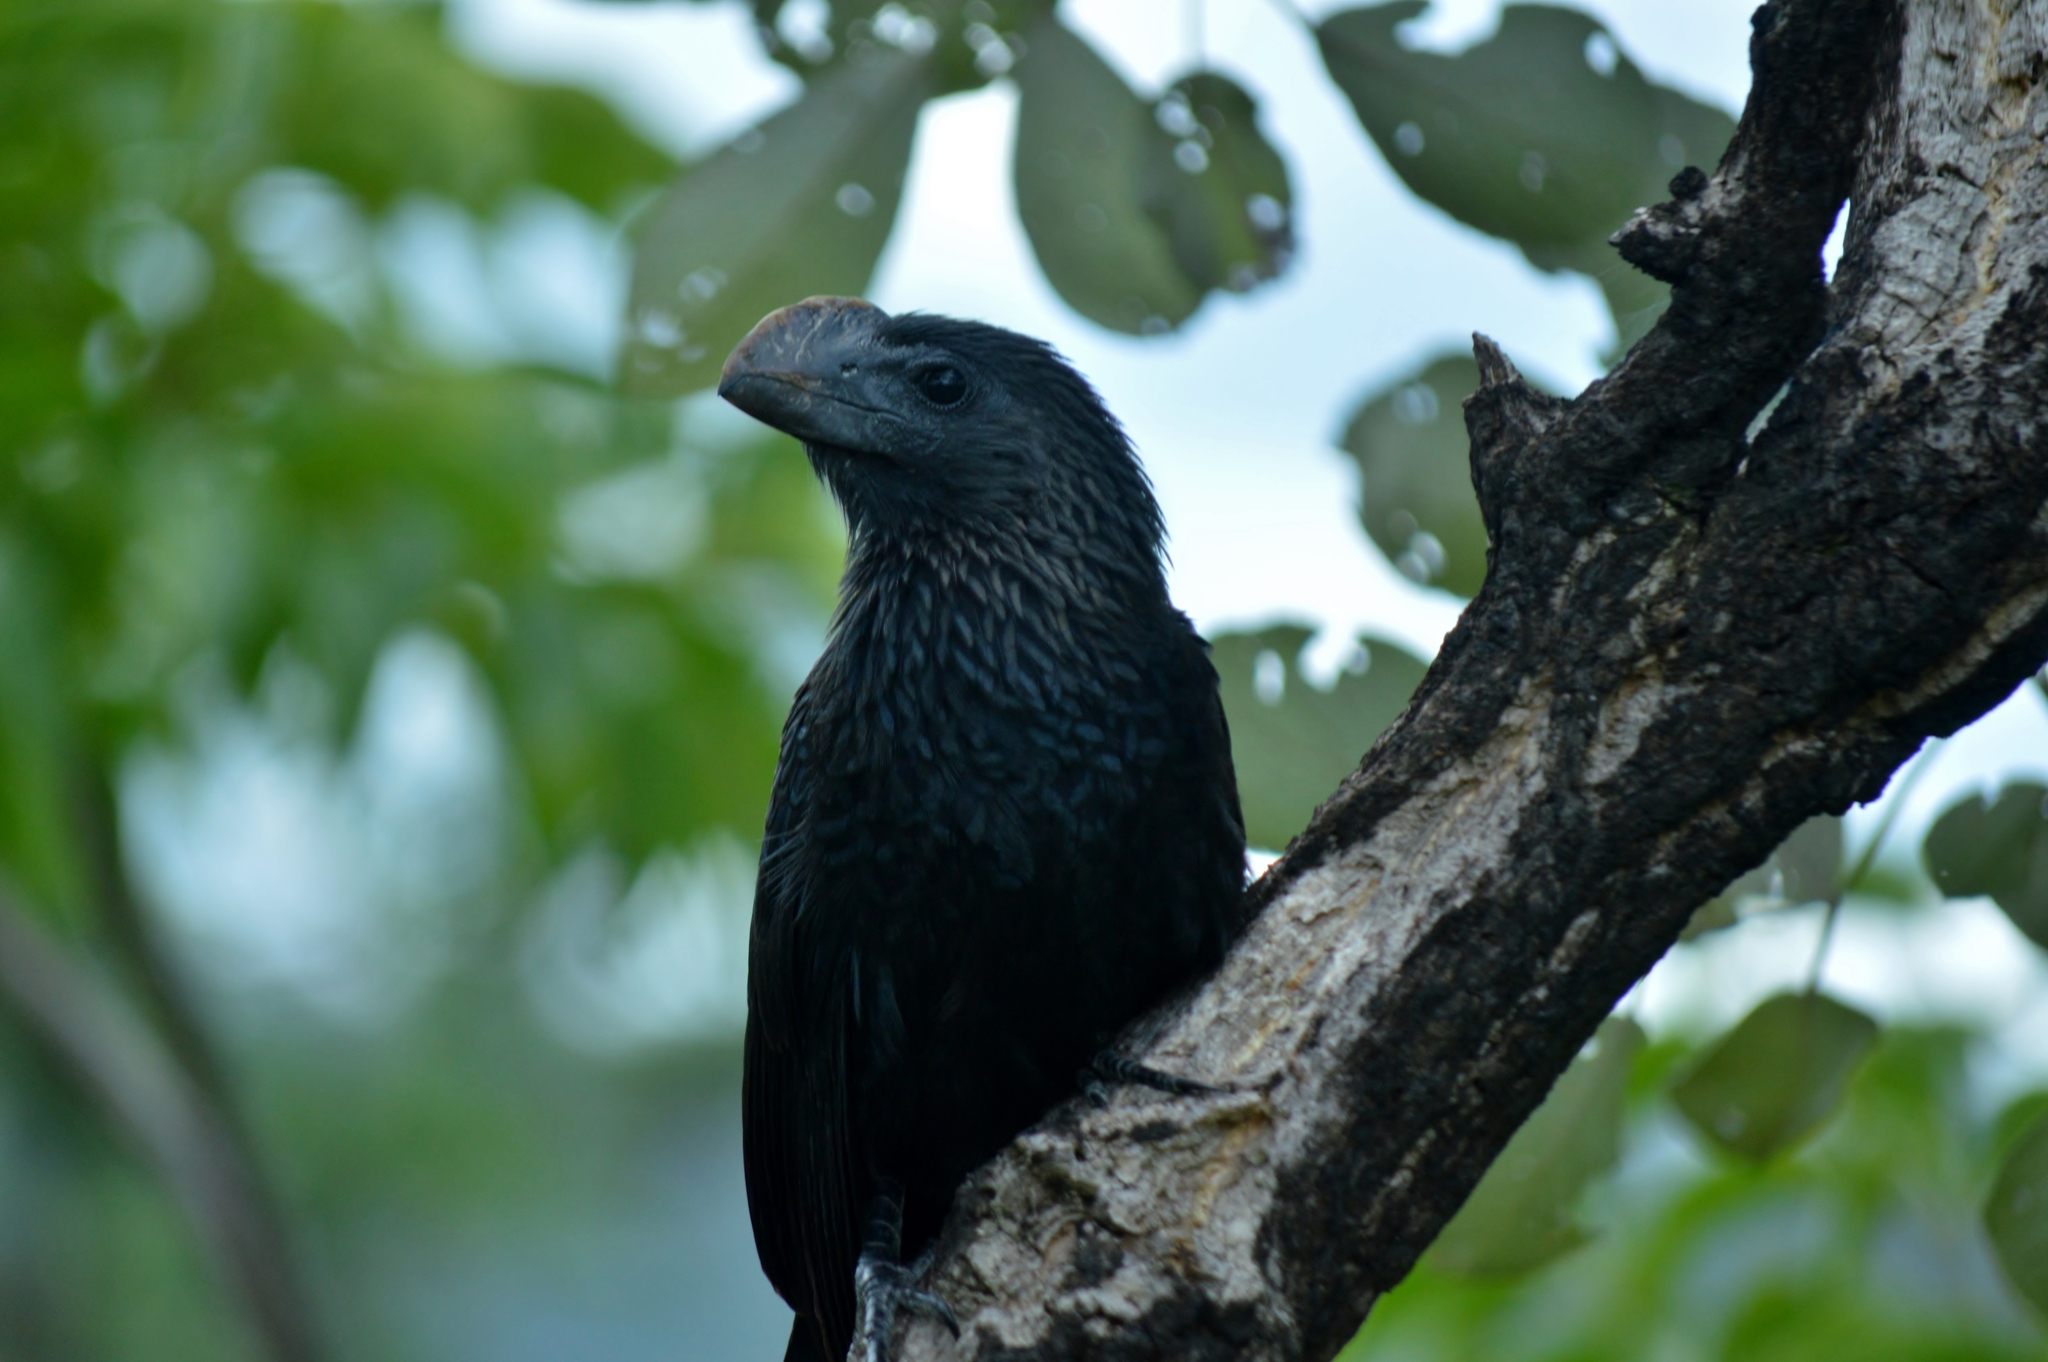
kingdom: Animalia
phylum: Chordata
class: Aves
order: Cuculiformes
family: Cuculidae
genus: Crotophaga
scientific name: Crotophaga ani
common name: Smooth-billed ani
